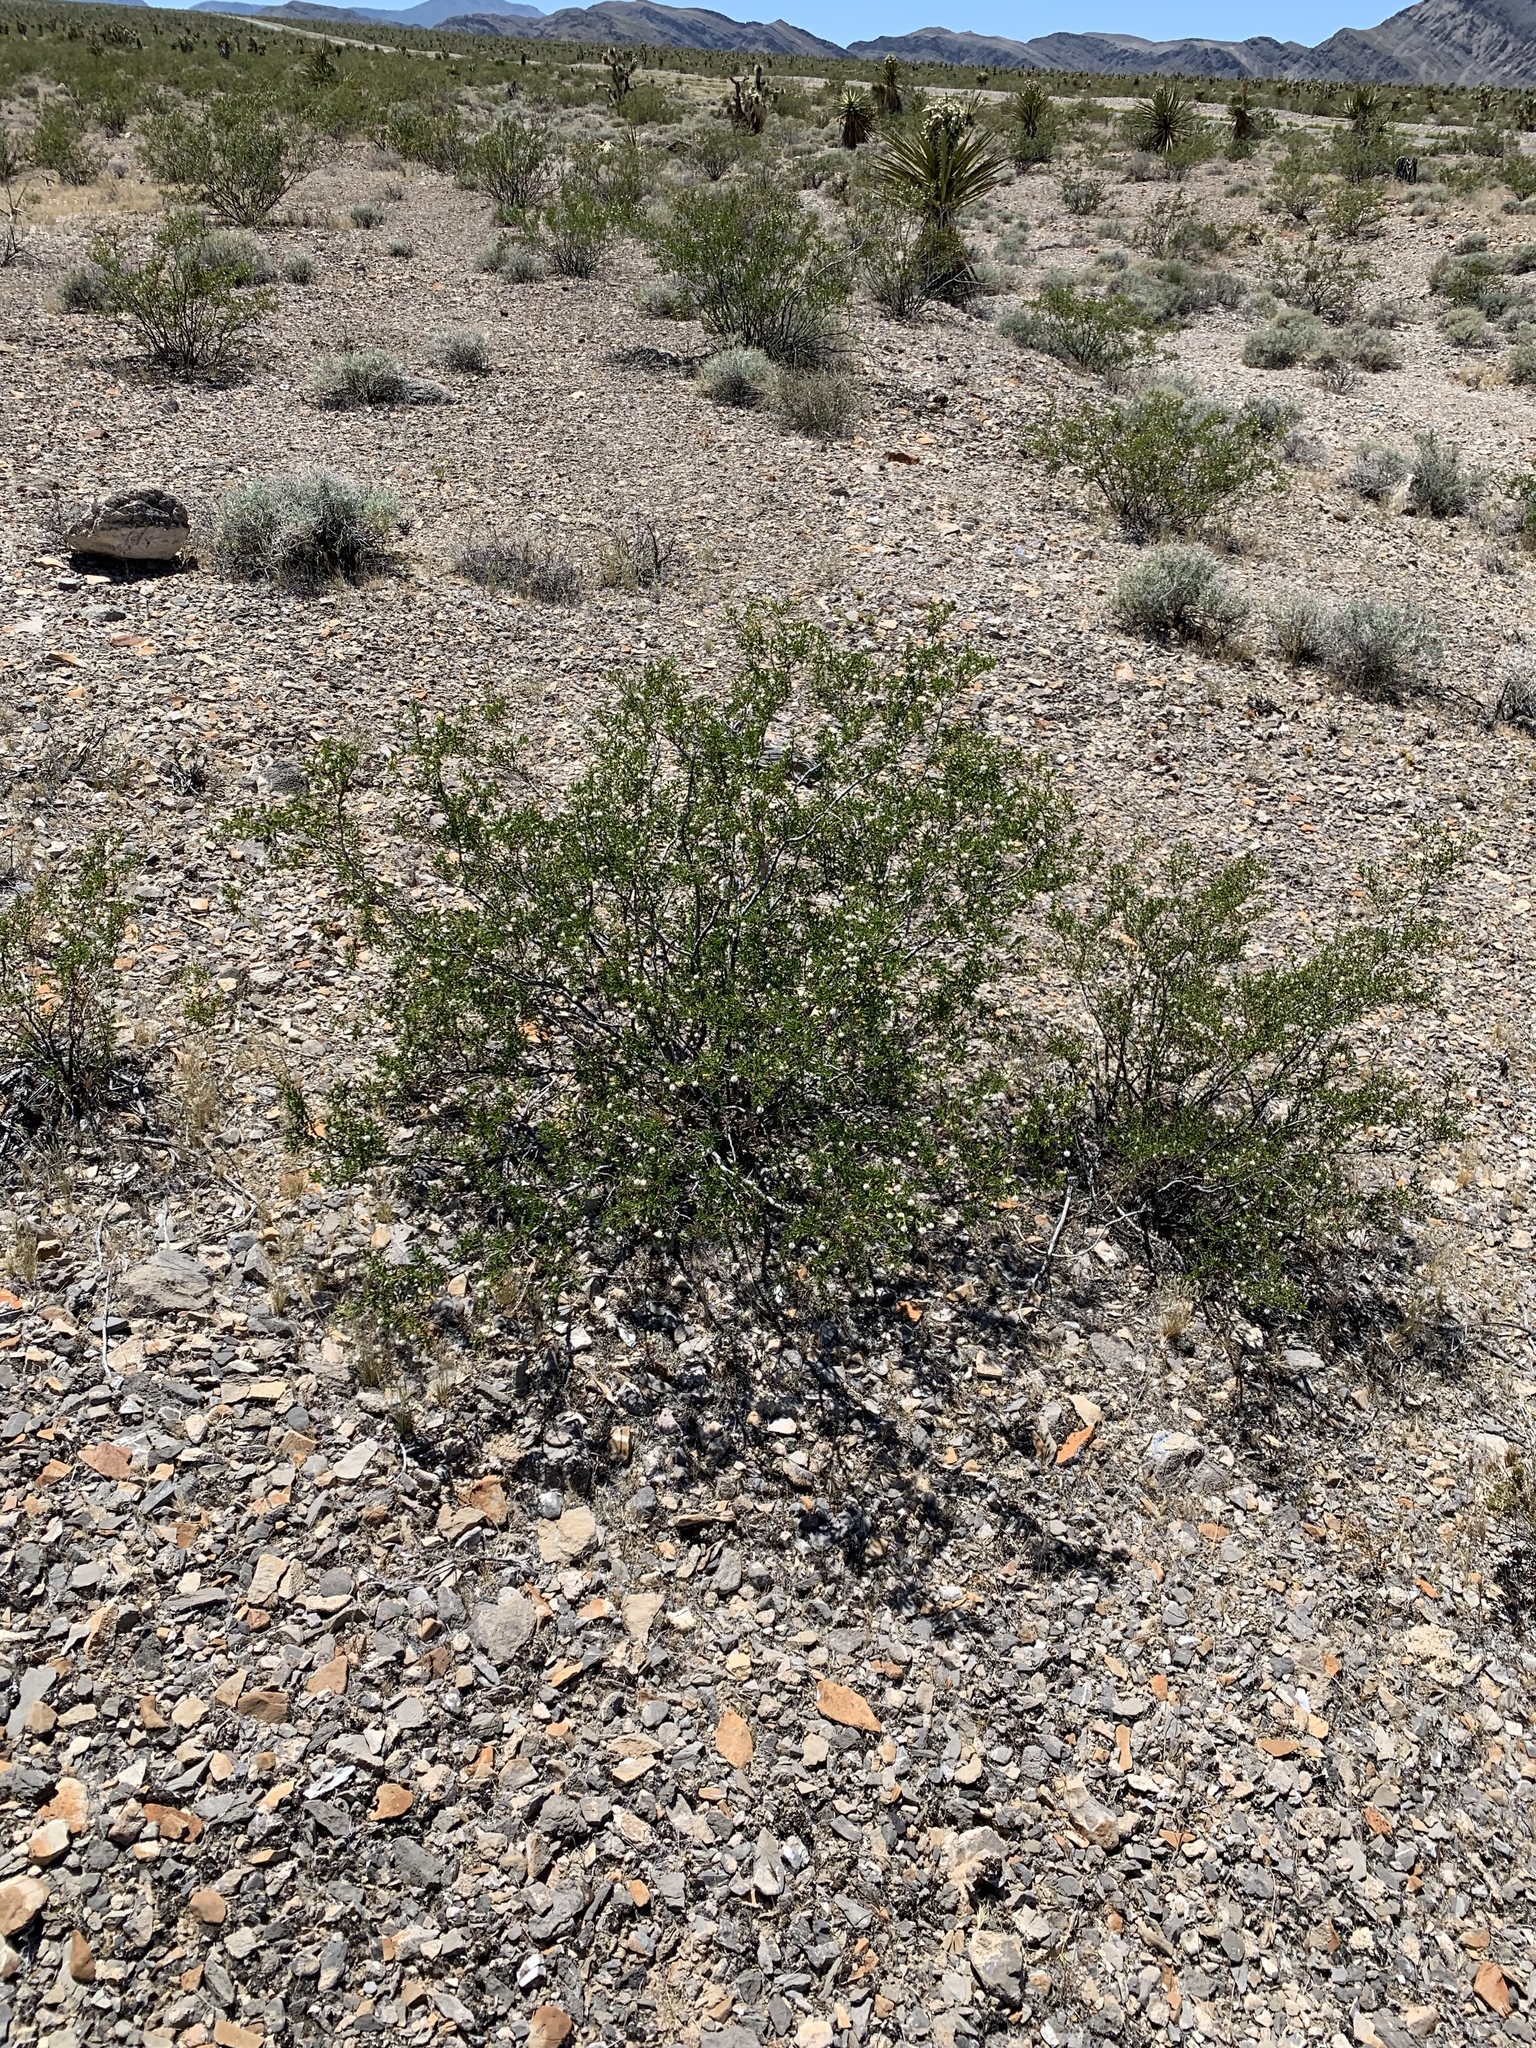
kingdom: Plantae
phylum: Tracheophyta
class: Magnoliopsida
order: Zygophyllales
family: Zygophyllaceae
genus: Larrea
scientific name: Larrea tridentata
